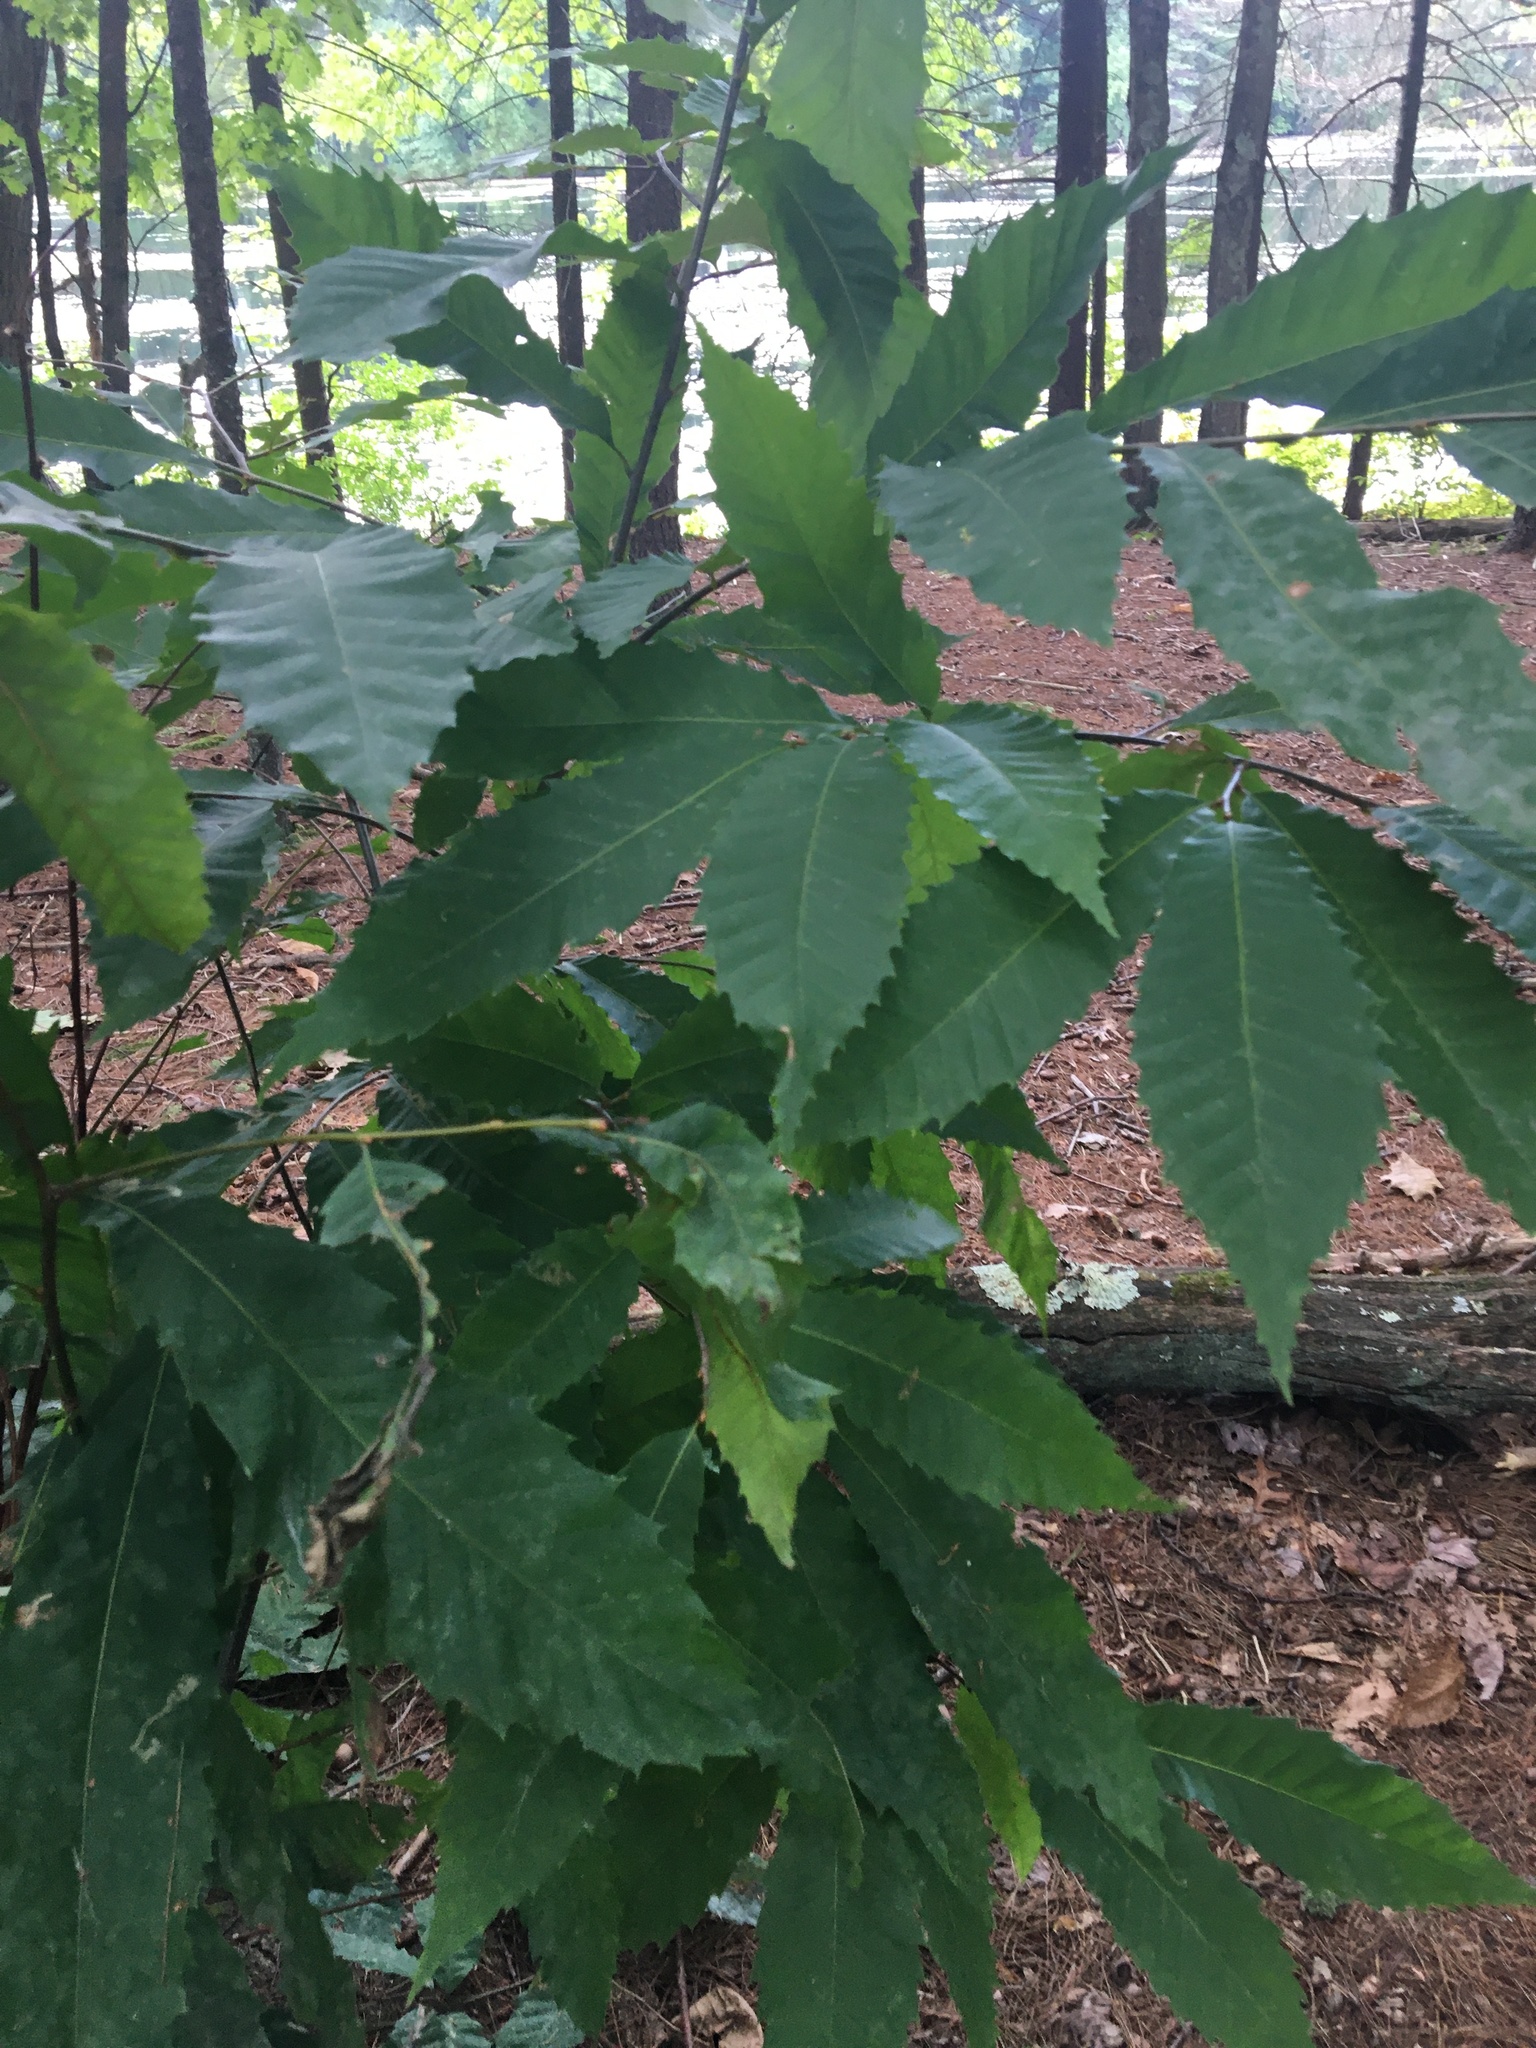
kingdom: Plantae
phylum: Tracheophyta
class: Magnoliopsida
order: Fagales
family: Fagaceae
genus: Castanea
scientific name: Castanea dentata
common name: American chestnut
